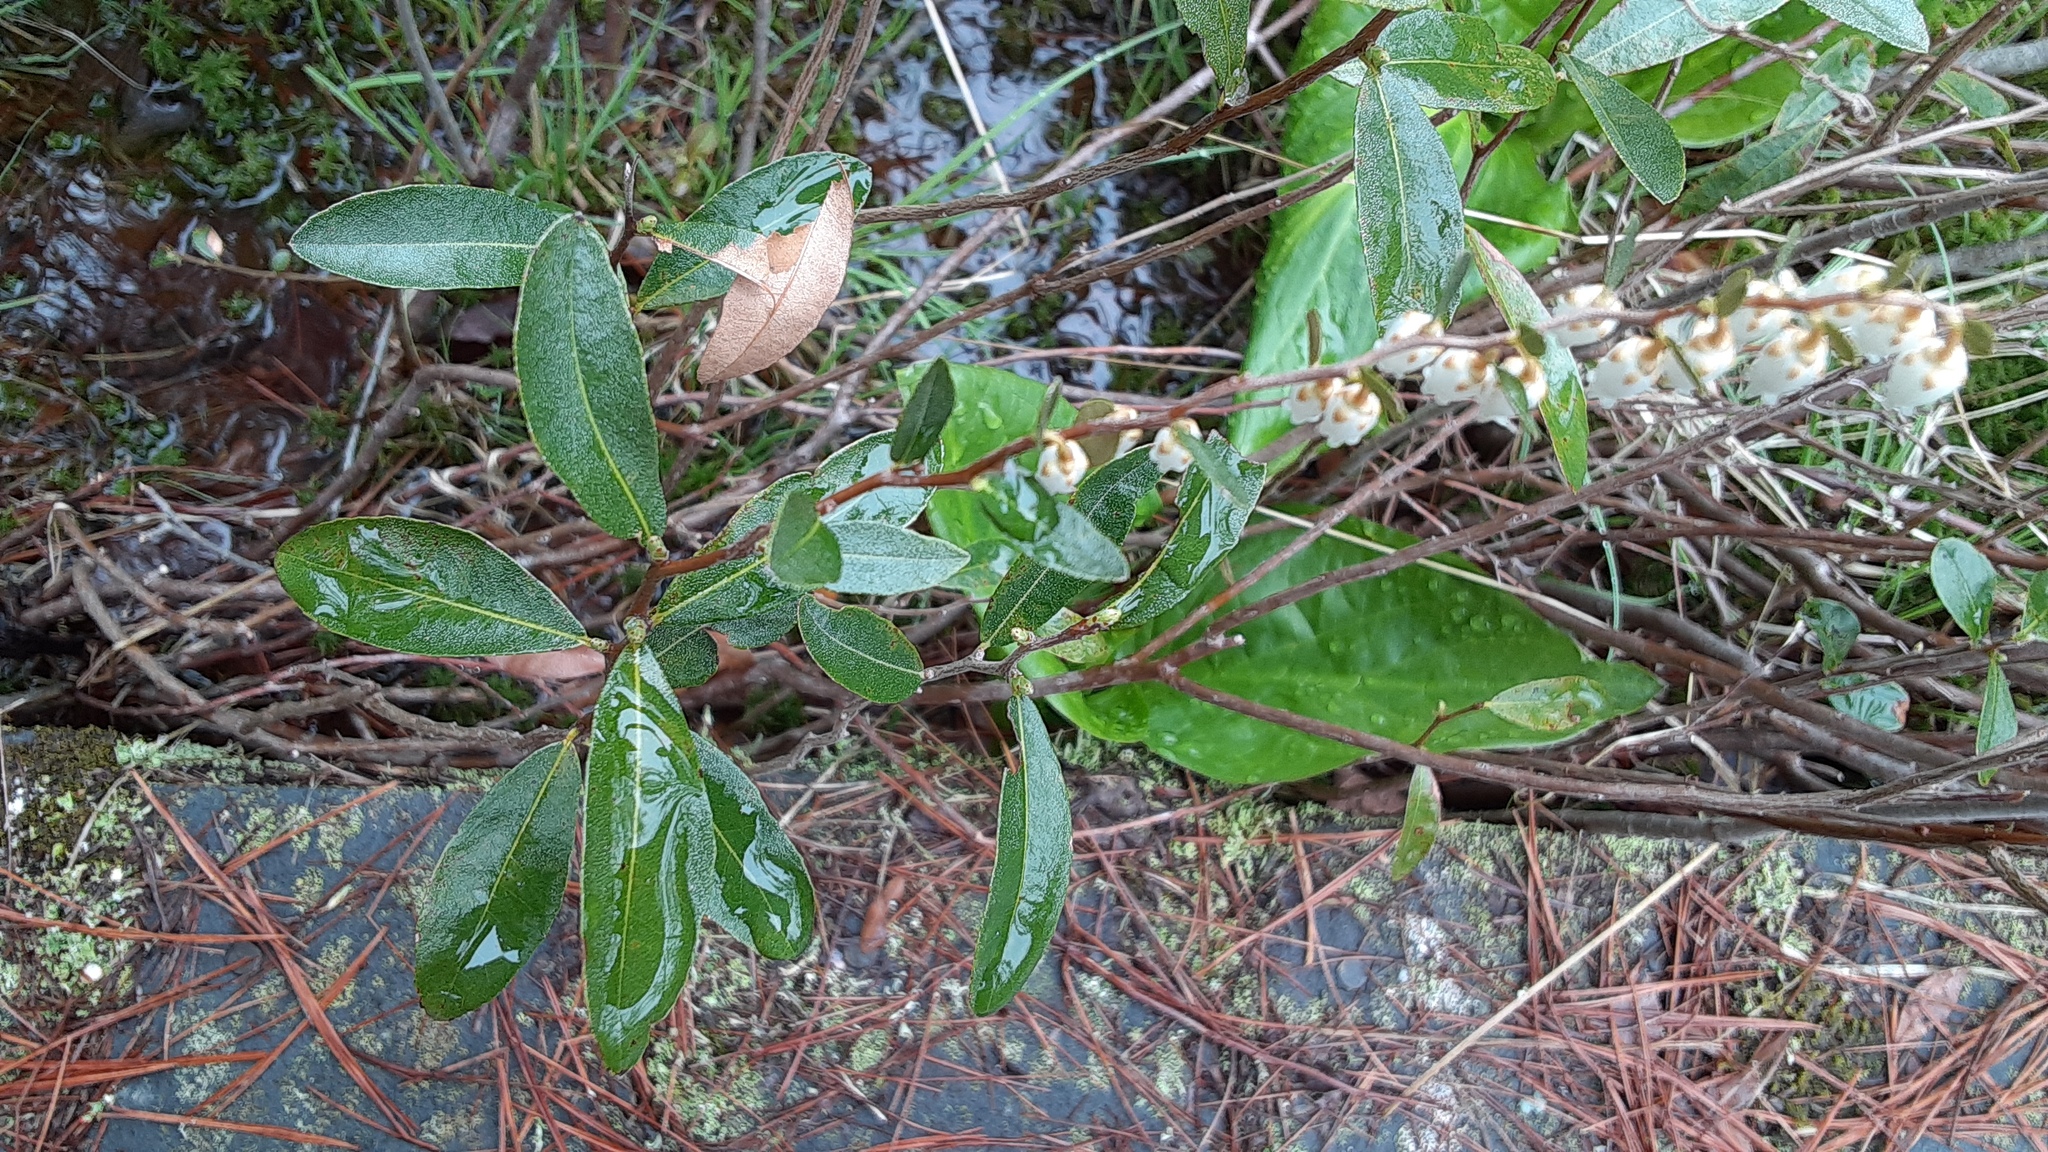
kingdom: Plantae
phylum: Tracheophyta
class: Magnoliopsida
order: Ericales
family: Ericaceae
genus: Chamaedaphne
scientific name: Chamaedaphne calyculata
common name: Leatherleaf
